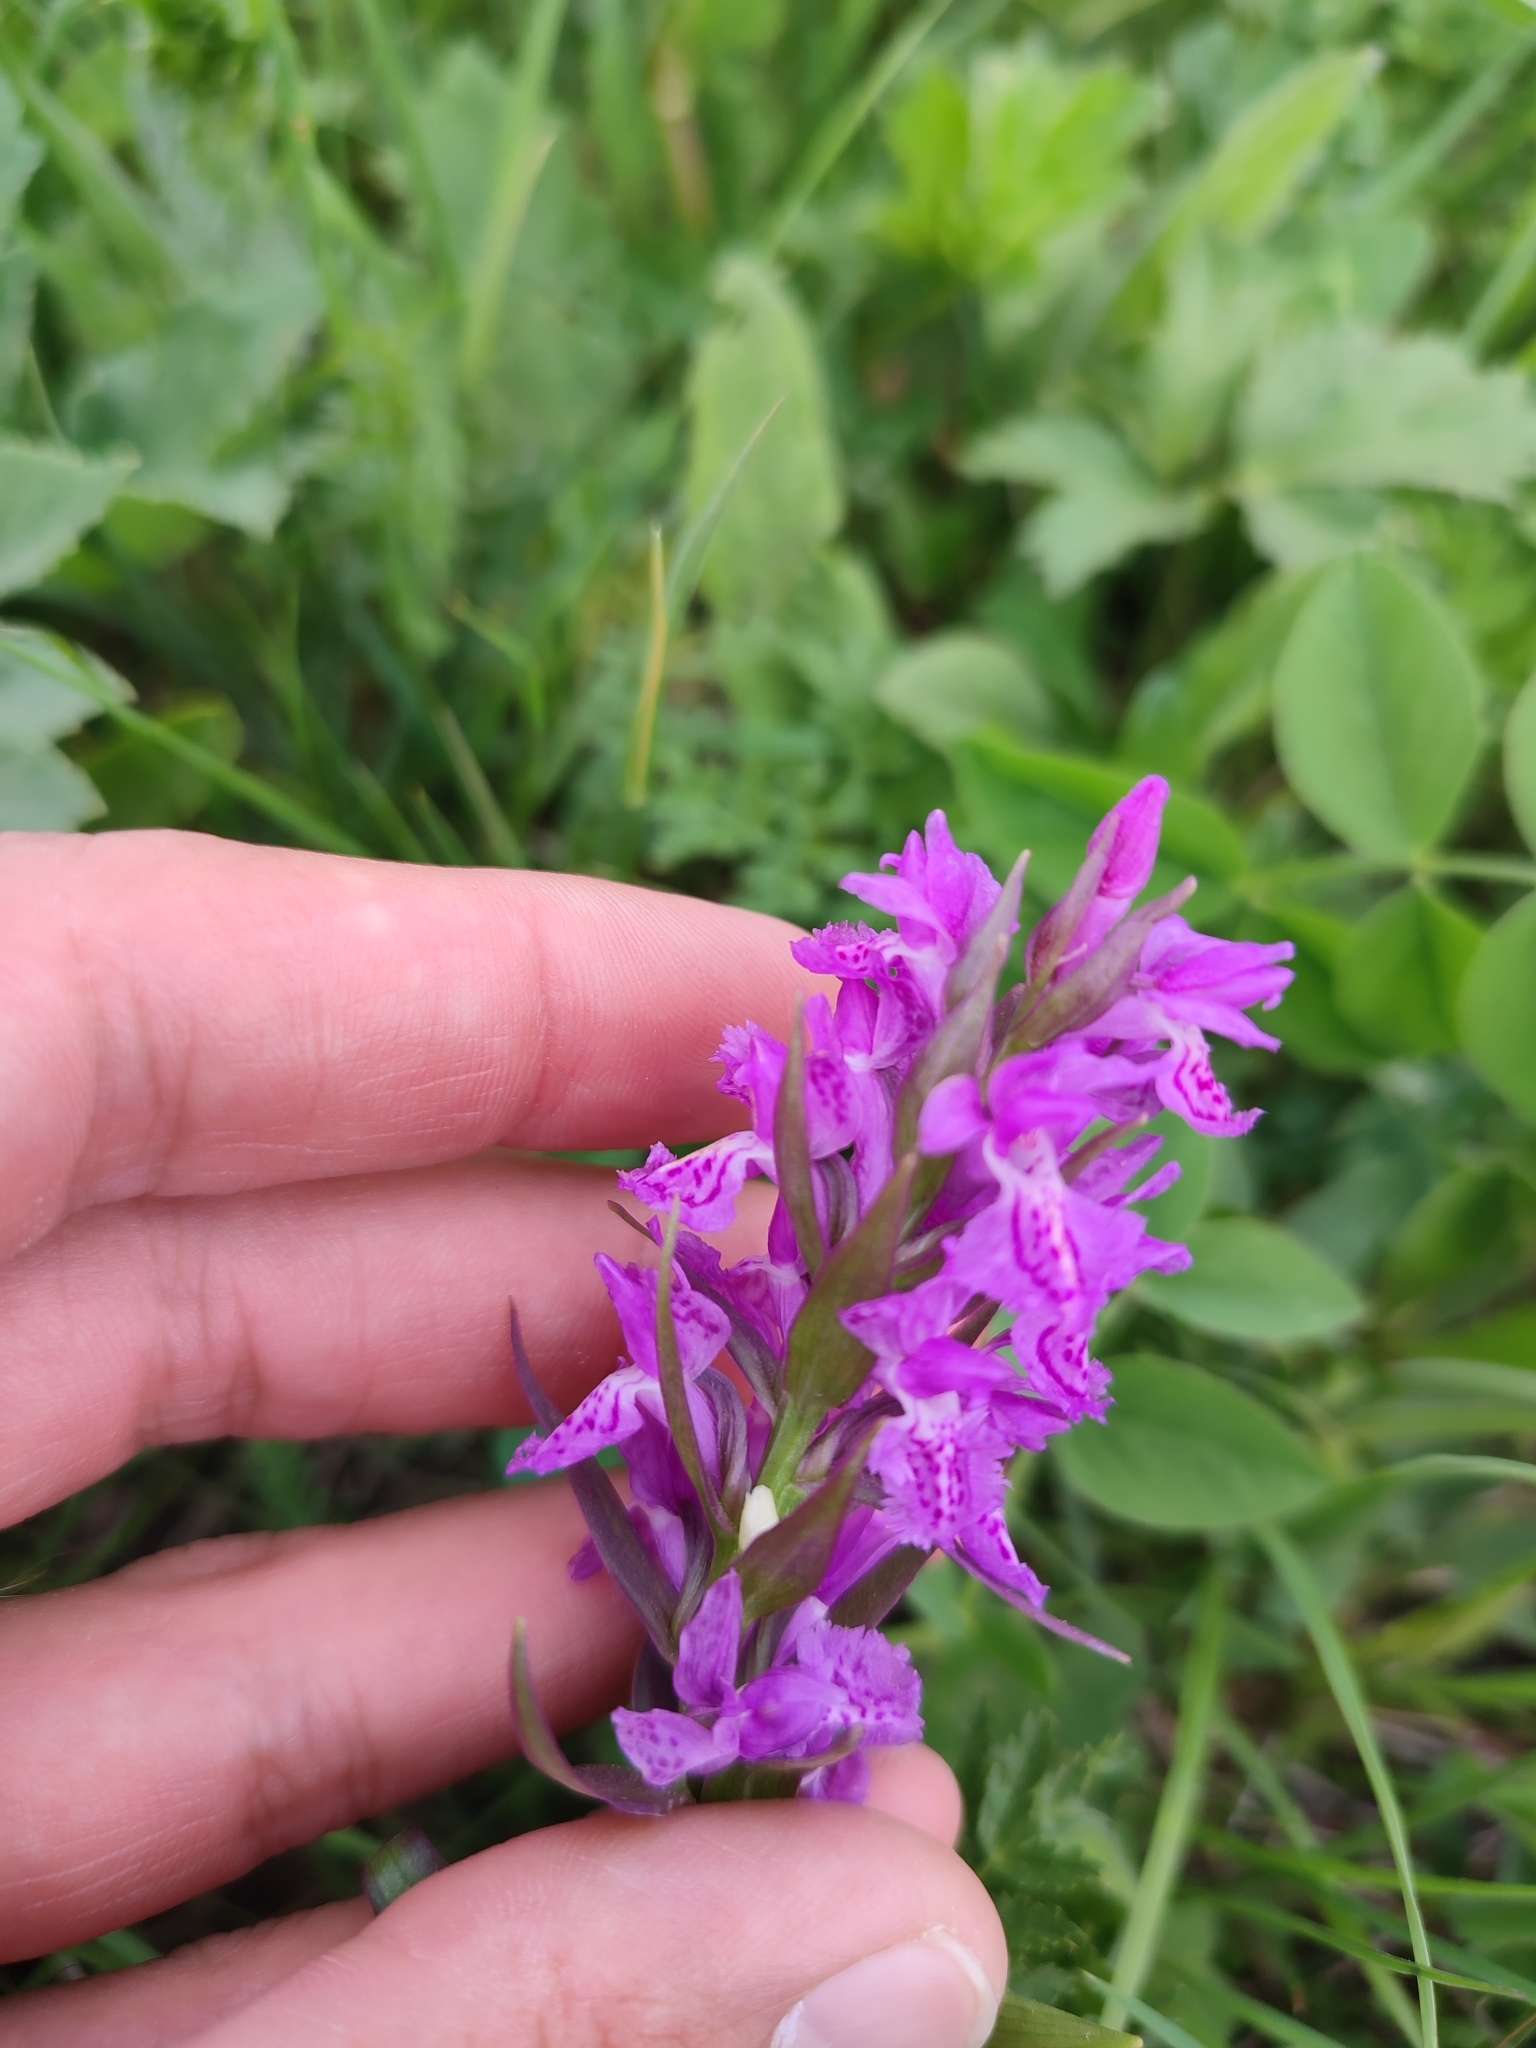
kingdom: Plantae
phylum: Tracheophyta
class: Liliopsida
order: Asparagales
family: Orchidaceae
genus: Dactylorhiza
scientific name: Dactylorhiza euxina
